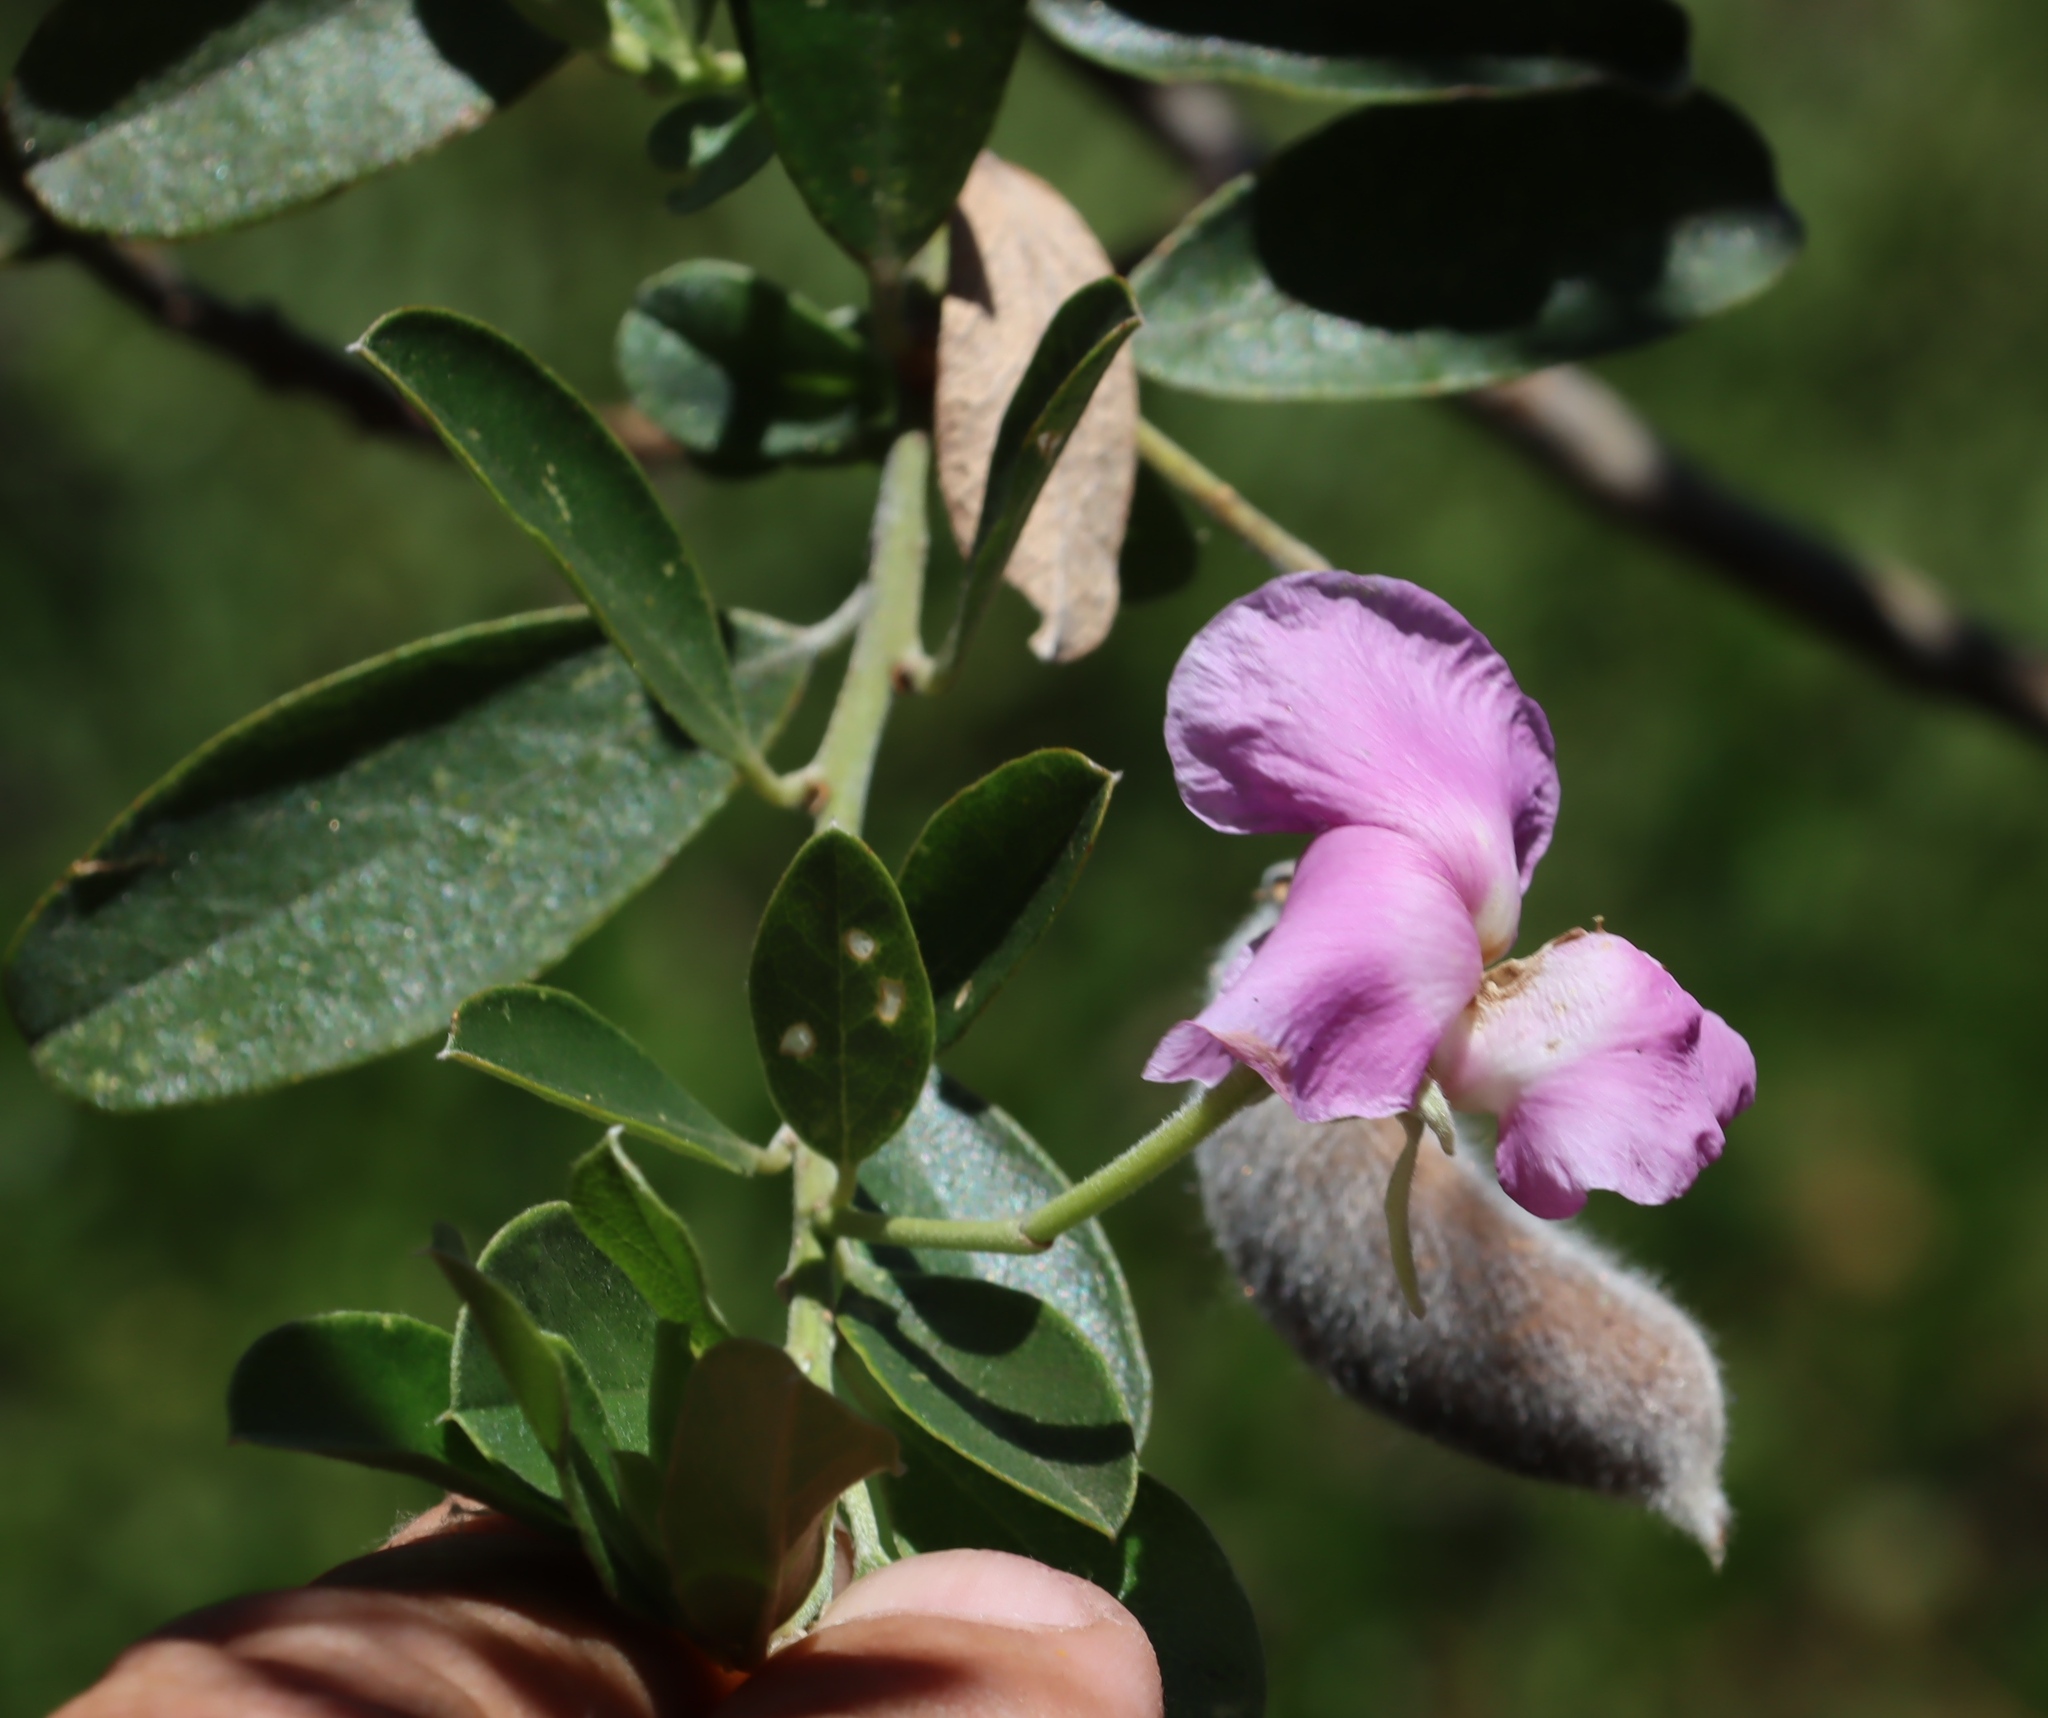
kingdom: Plantae
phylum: Tracheophyta
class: Magnoliopsida
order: Fabales
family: Fabaceae
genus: Podalyria
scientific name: Podalyria calyptrata
